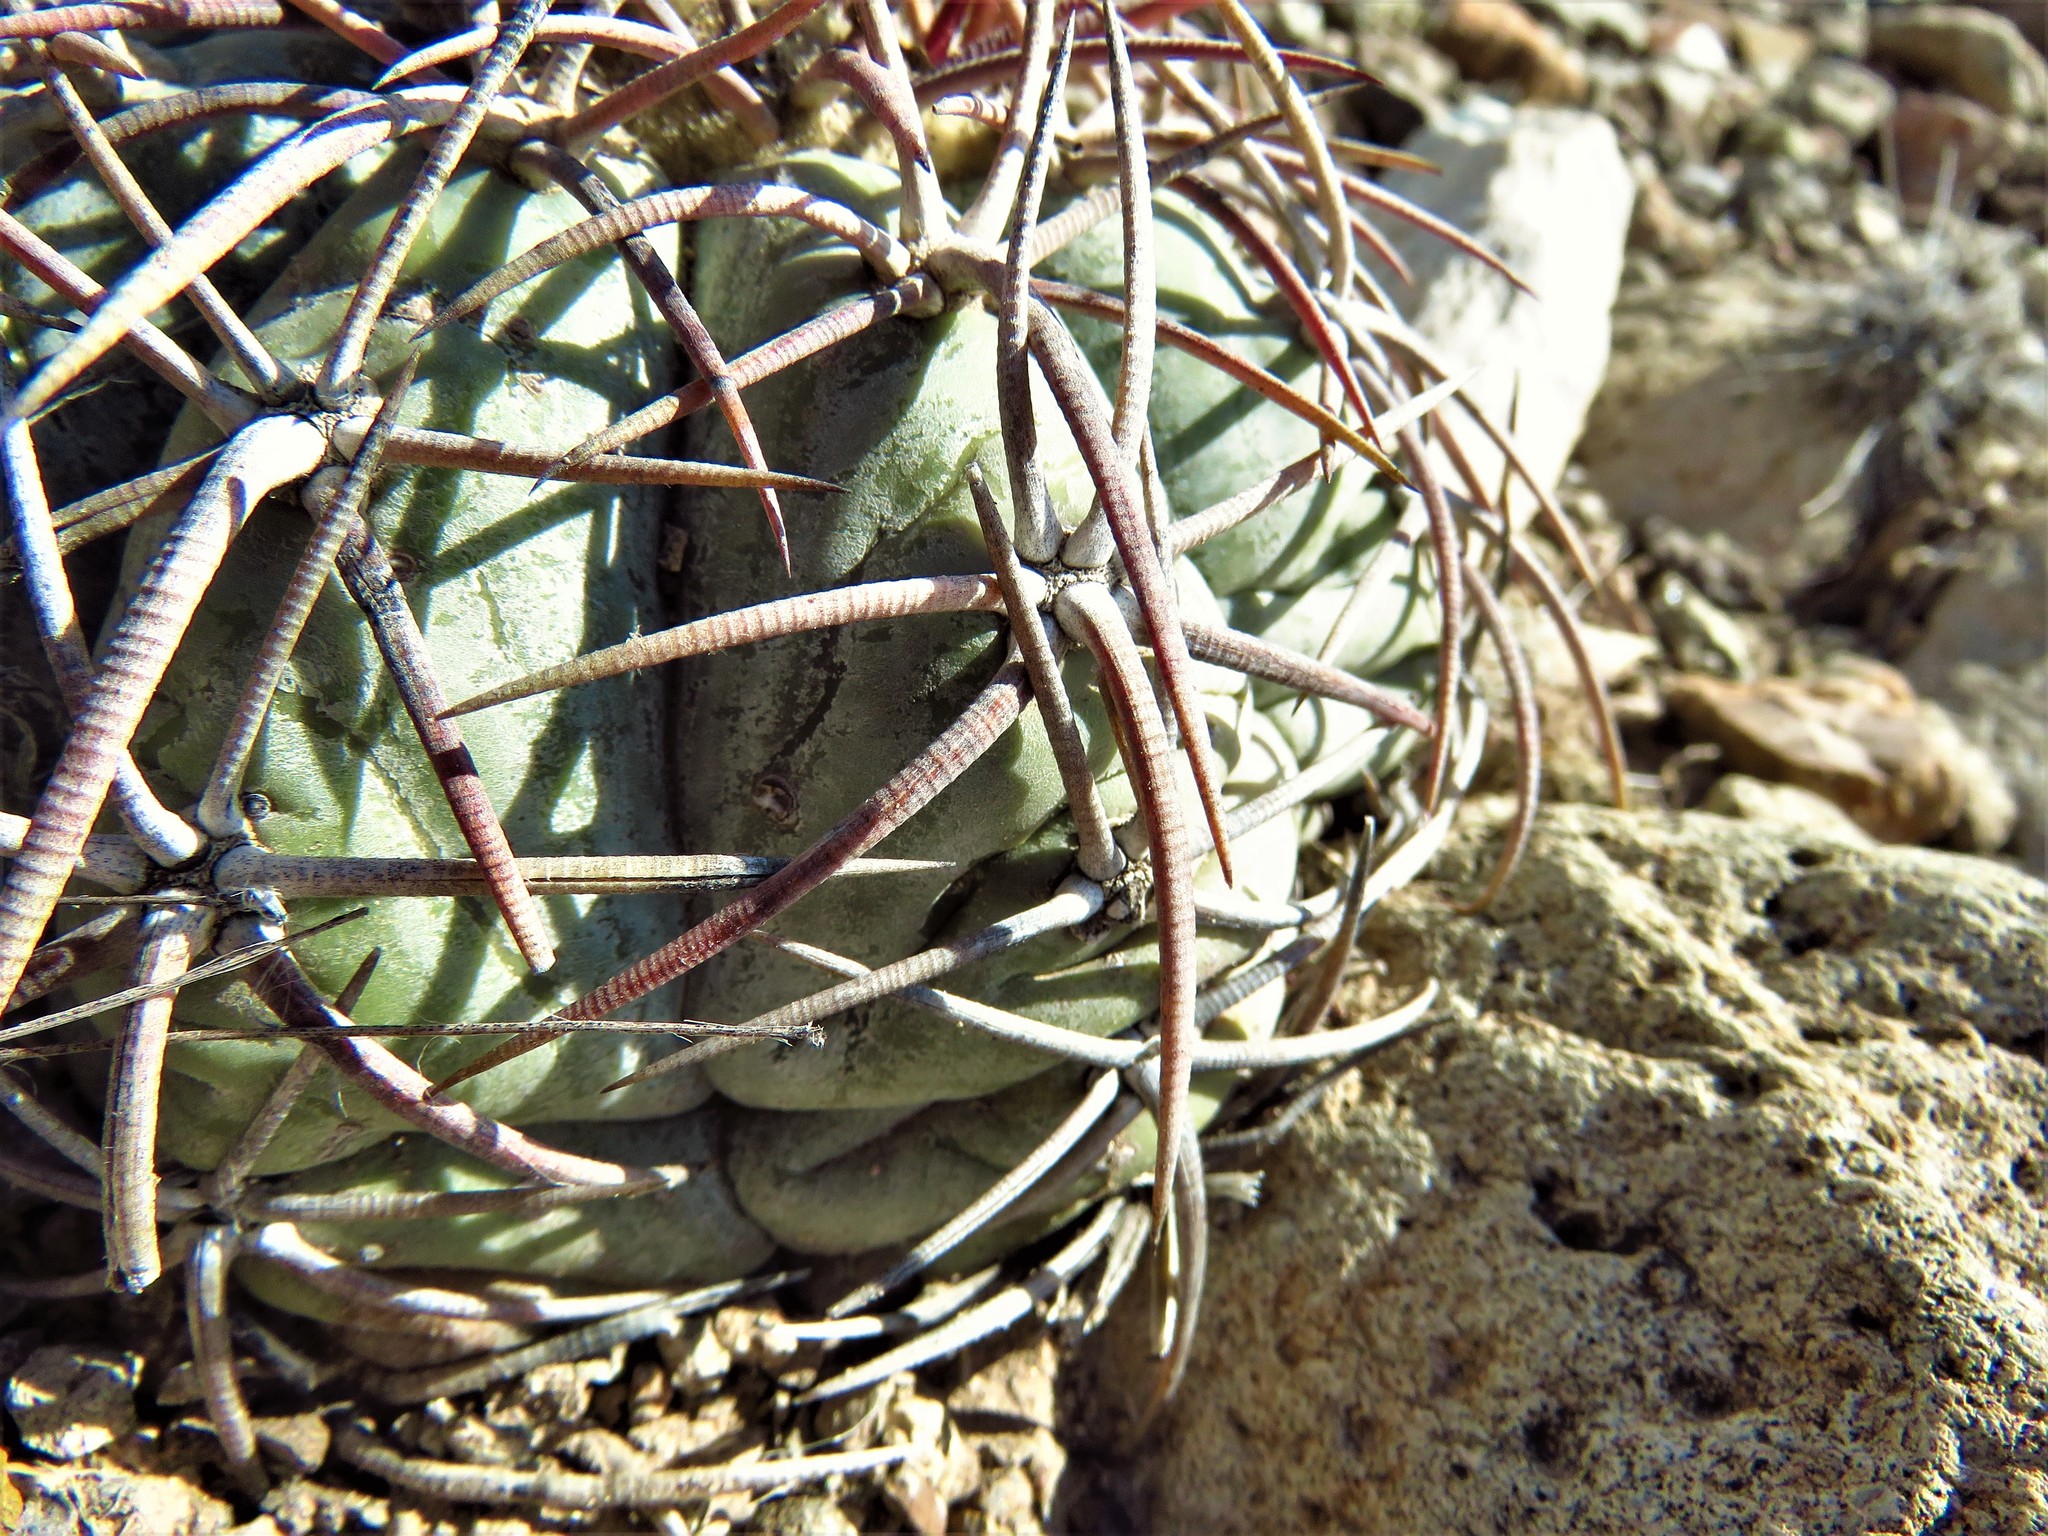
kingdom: Plantae
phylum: Tracheophyta
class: Magnoliopsida
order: Caryophyllales
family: Cactaceae
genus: Echinocactus
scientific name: Echinocactus horizonthalonius
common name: Devilshead
